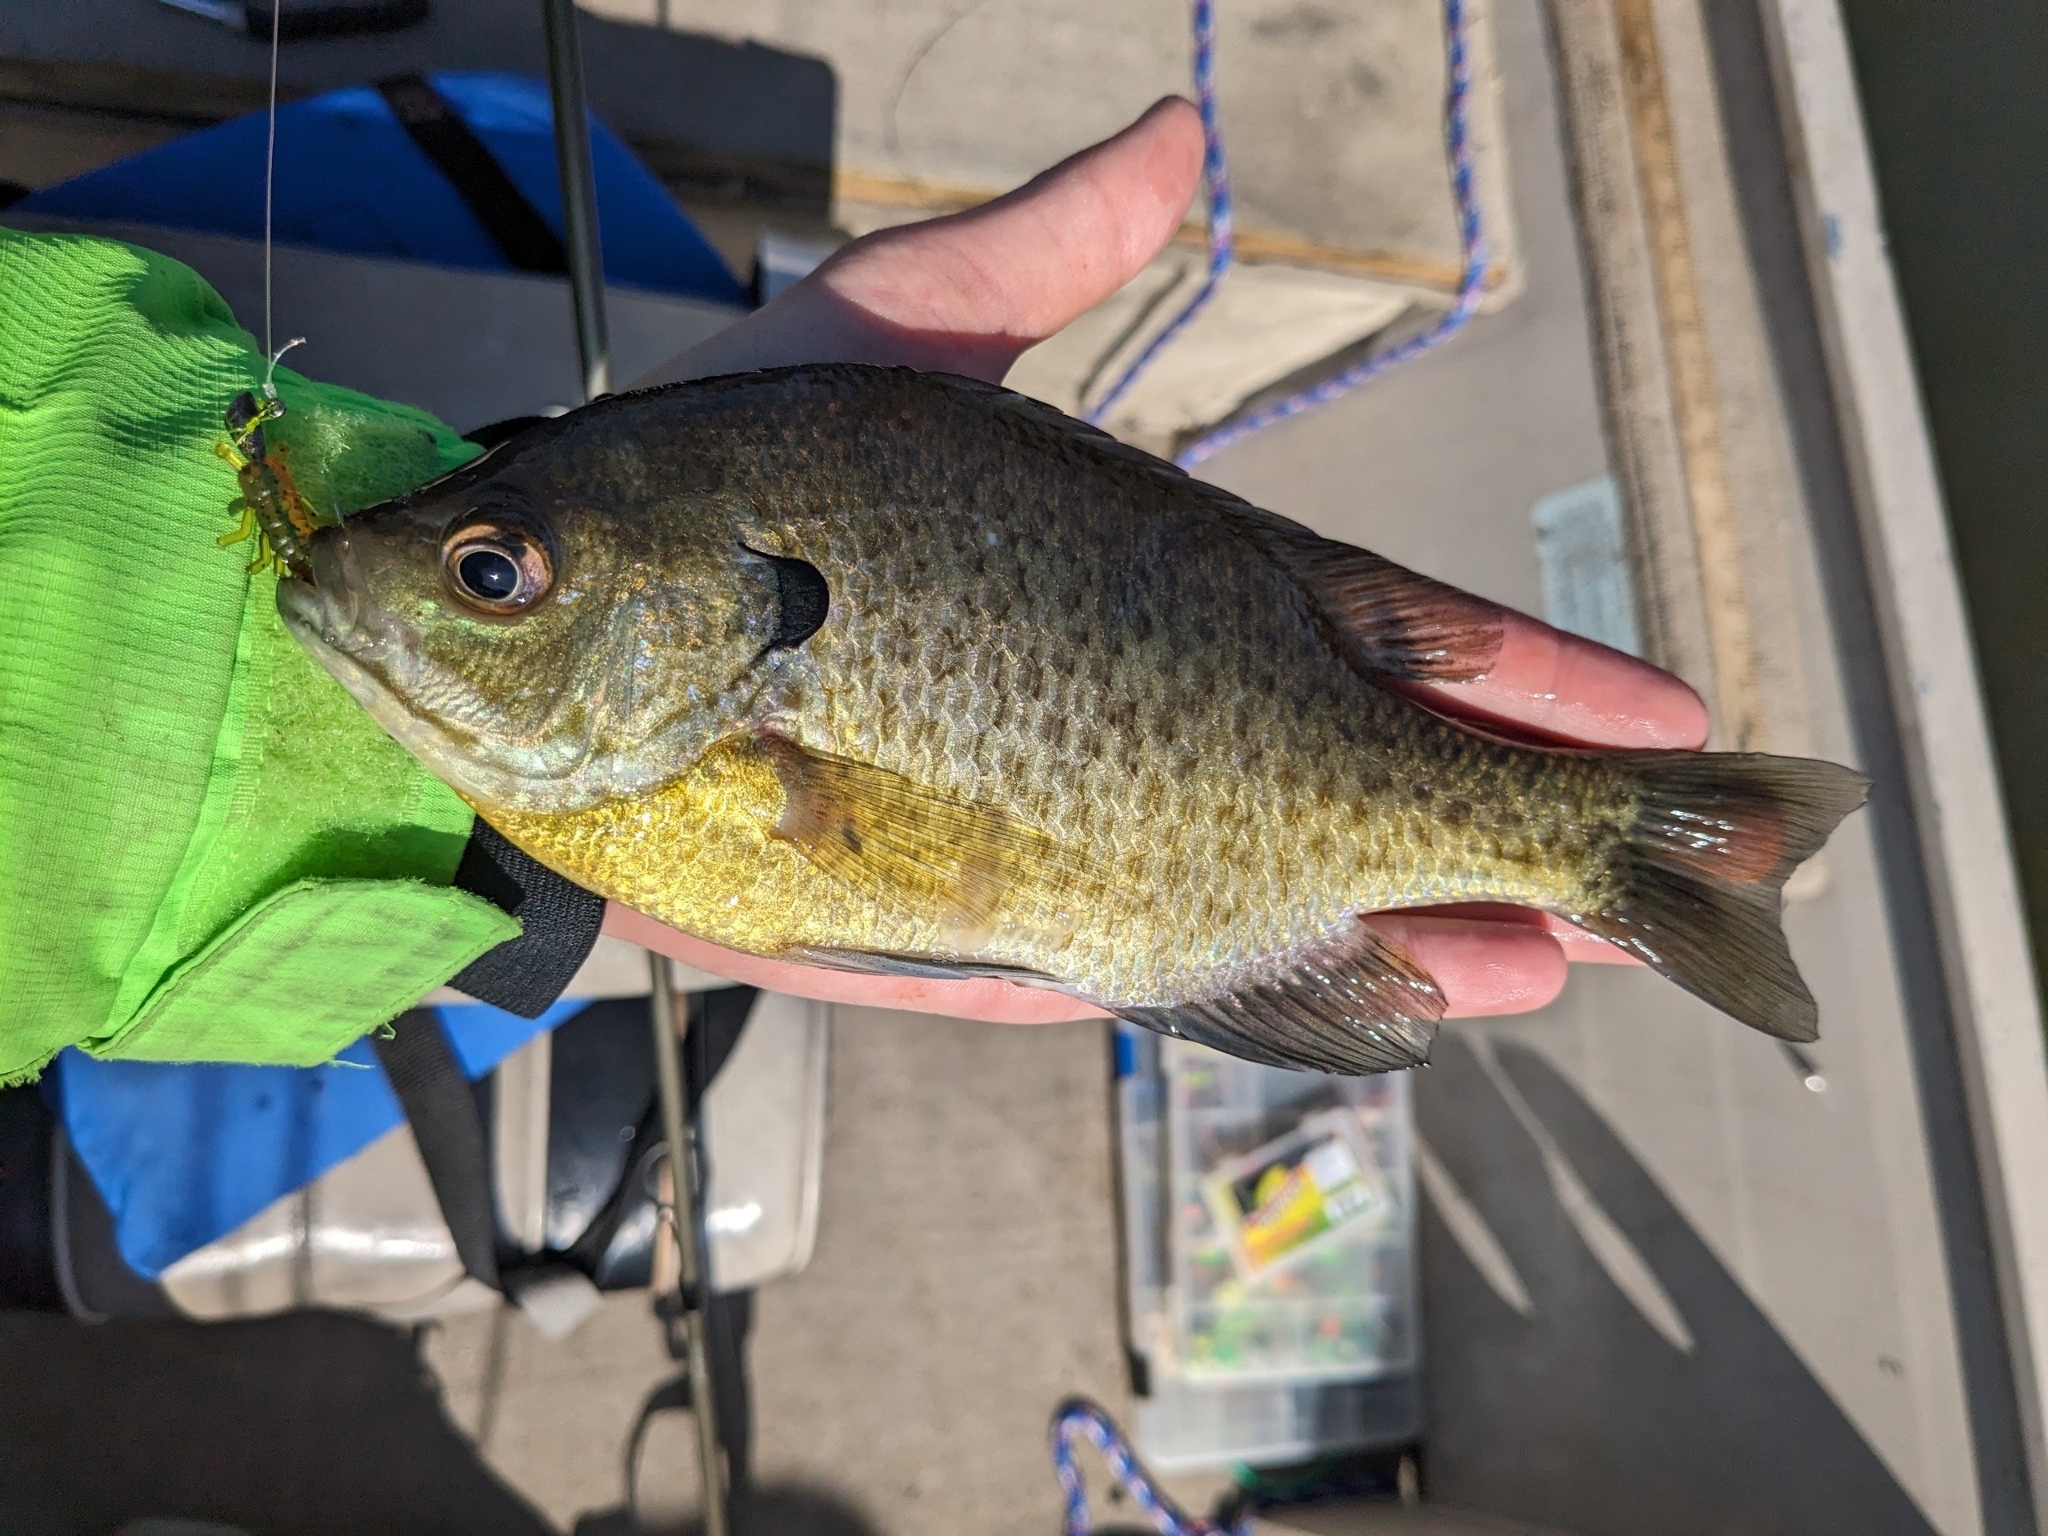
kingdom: Animalia
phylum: Chordata
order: Perciformes
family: Centrarchidae
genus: Lepomis
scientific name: Lepomis macrochirus
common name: Bluegill
